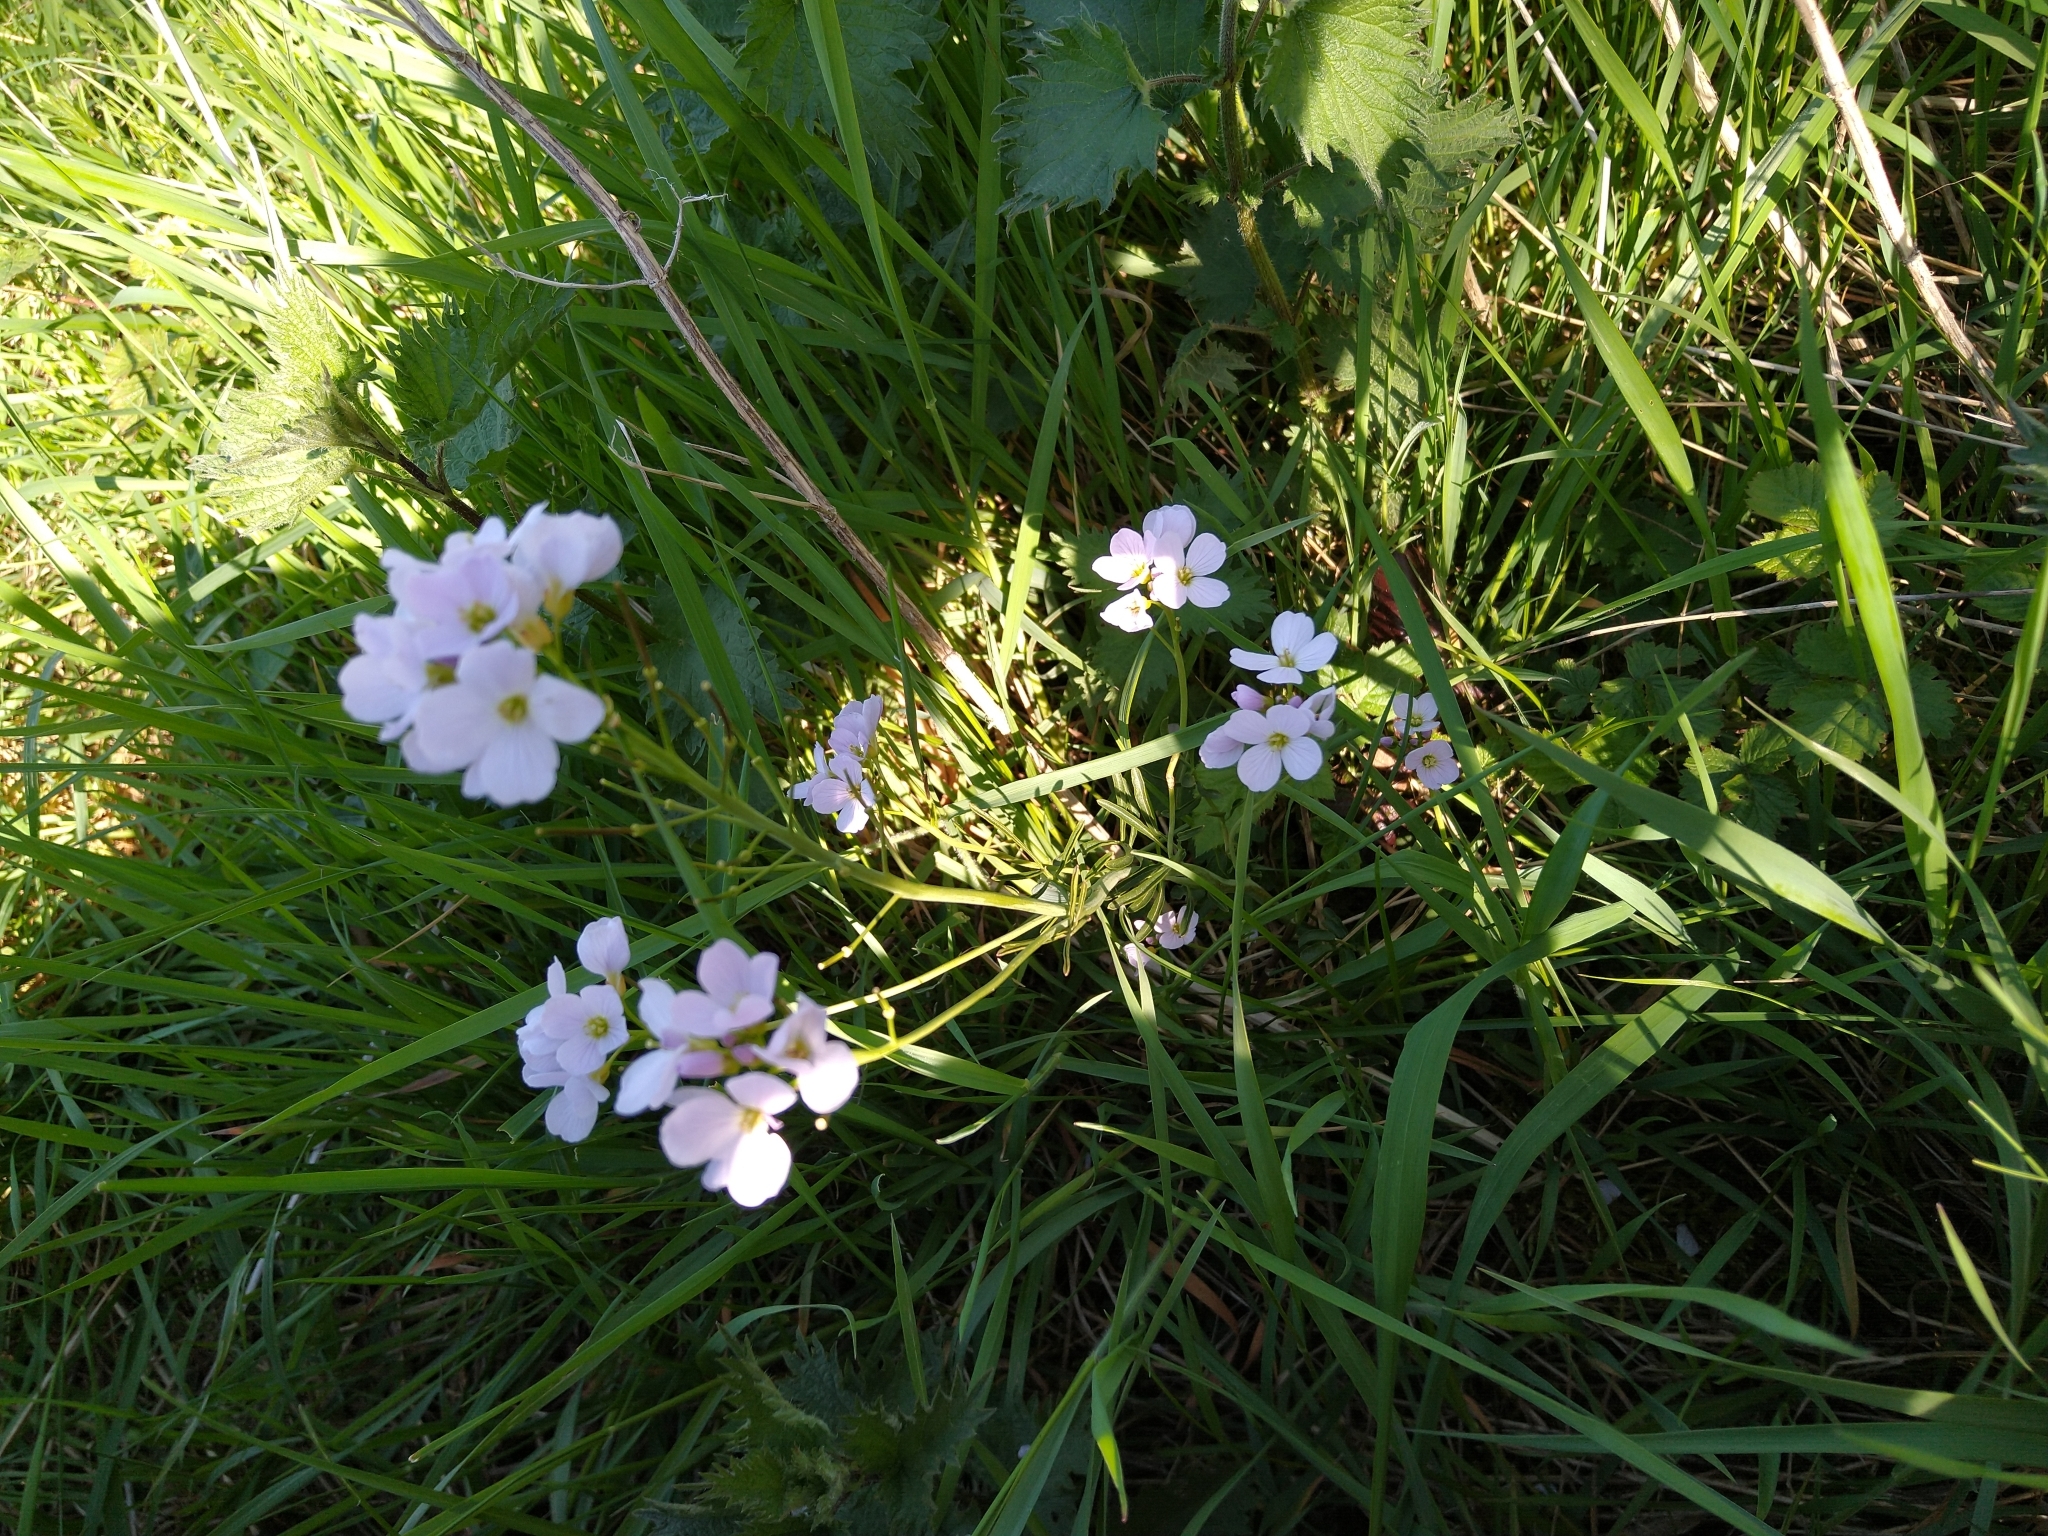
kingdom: Plantae
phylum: Tracheophyta
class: Magnoliopsida
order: Brassicales
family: Brassicaceae
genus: Cardamine
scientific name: Cardamine pratensis
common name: Cuckoo flower
